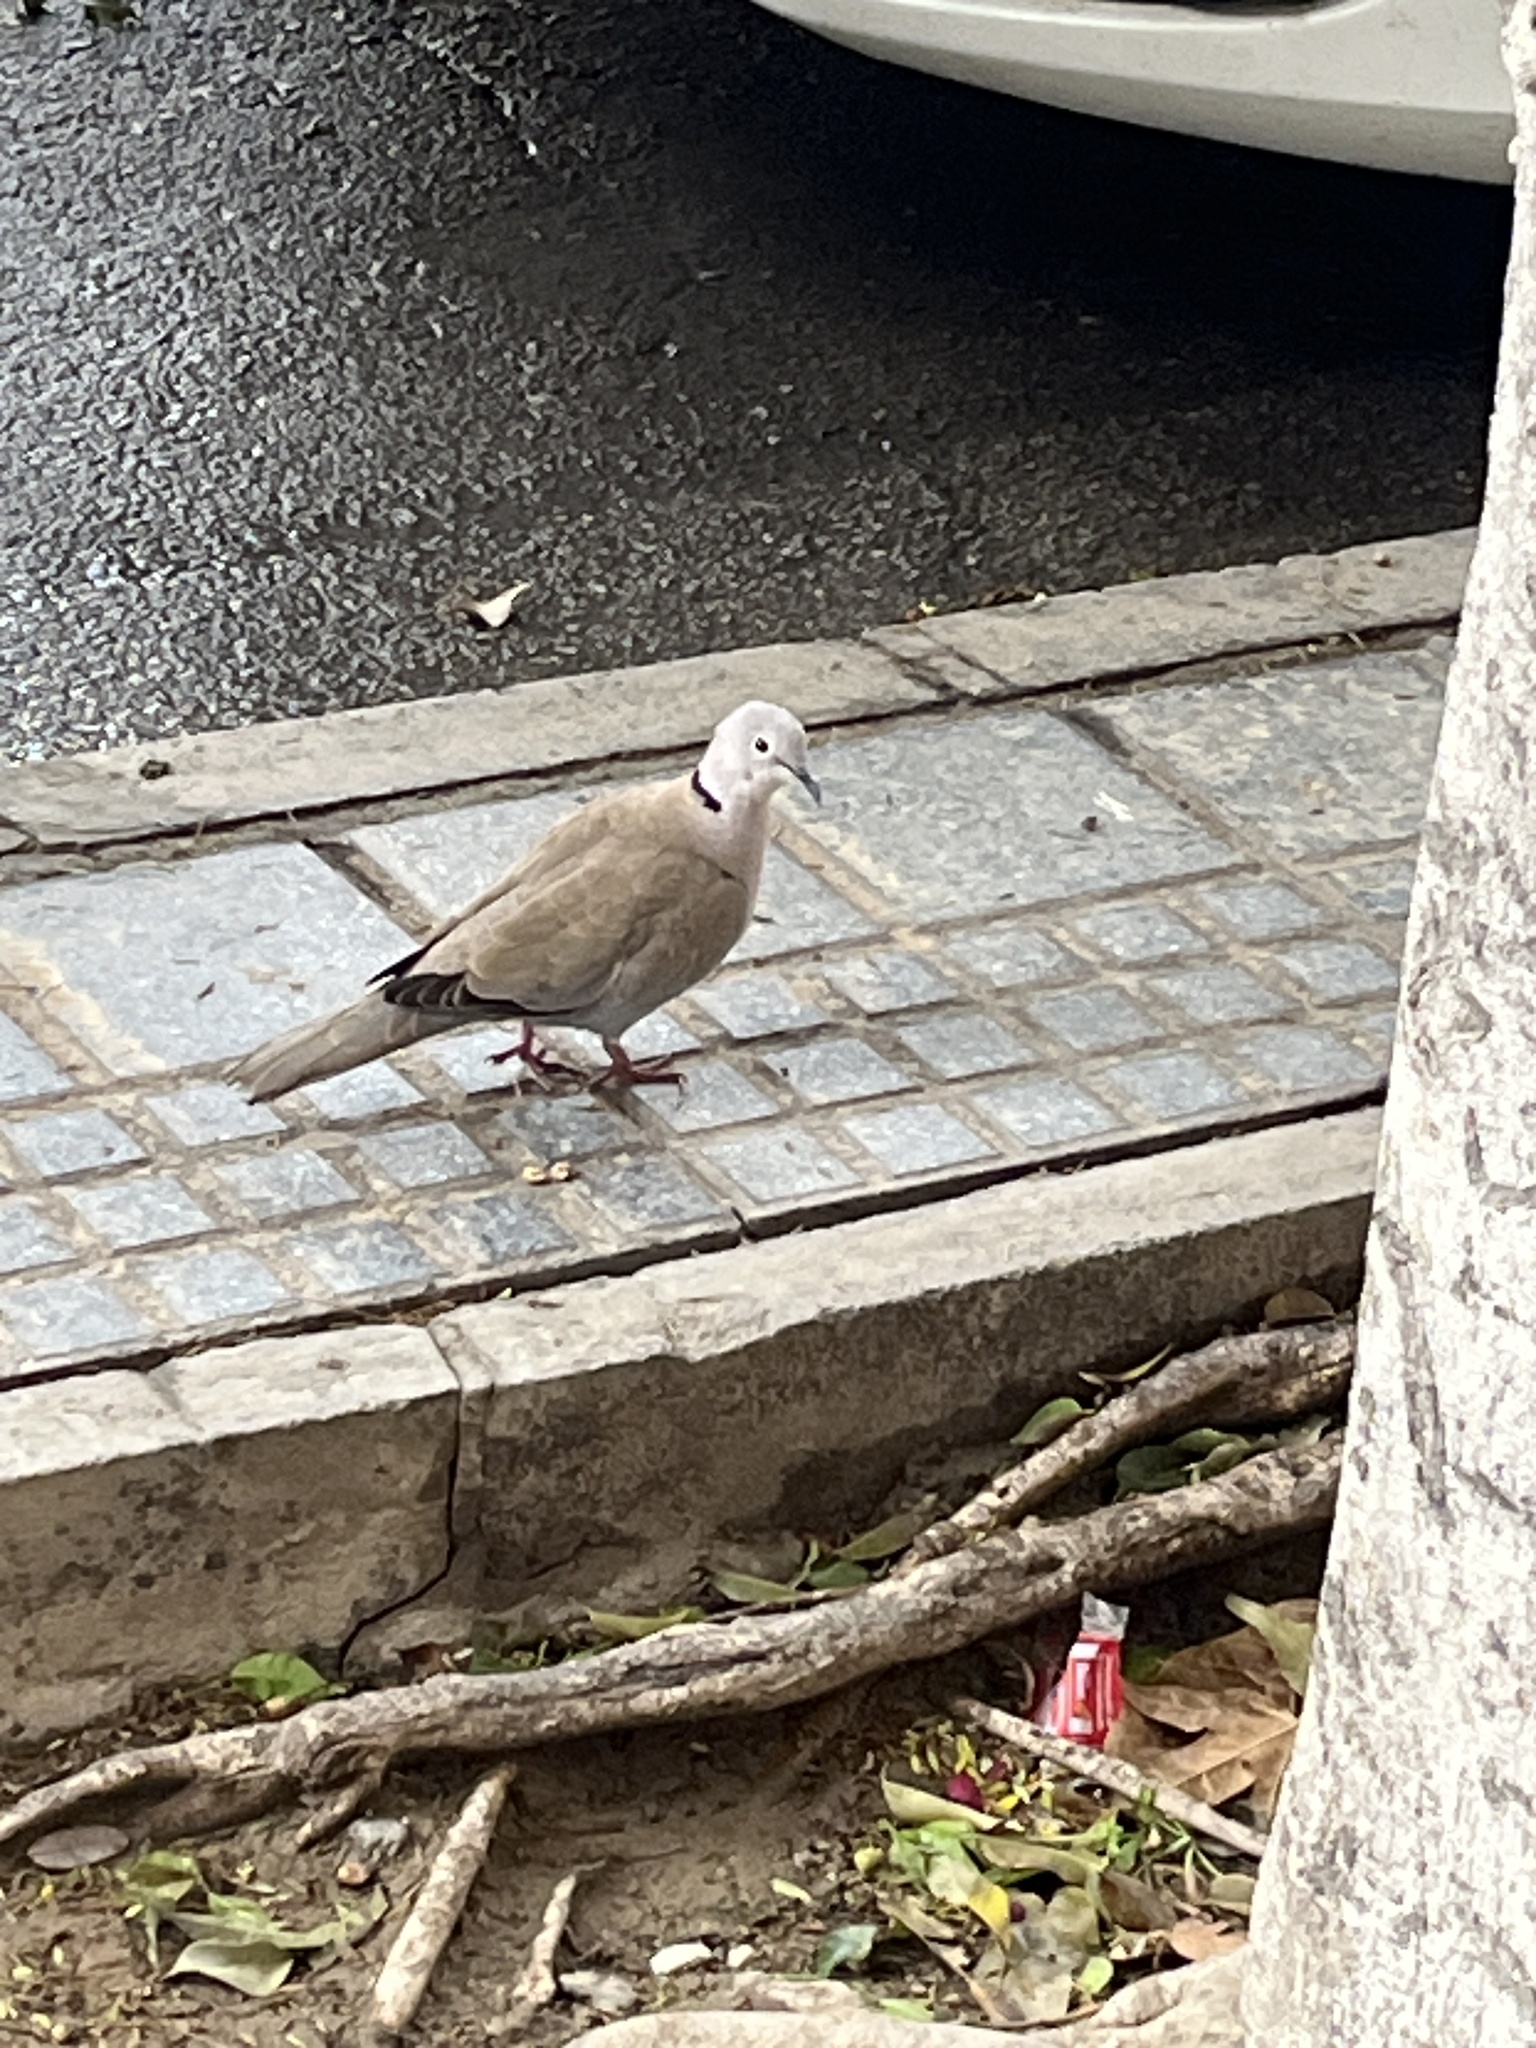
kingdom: Animalia
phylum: Chordata
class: Aves
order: Columbiformes
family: Columbidae
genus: Streptopelia
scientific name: Streptopelia decaocto
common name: Eurasian collared dove
